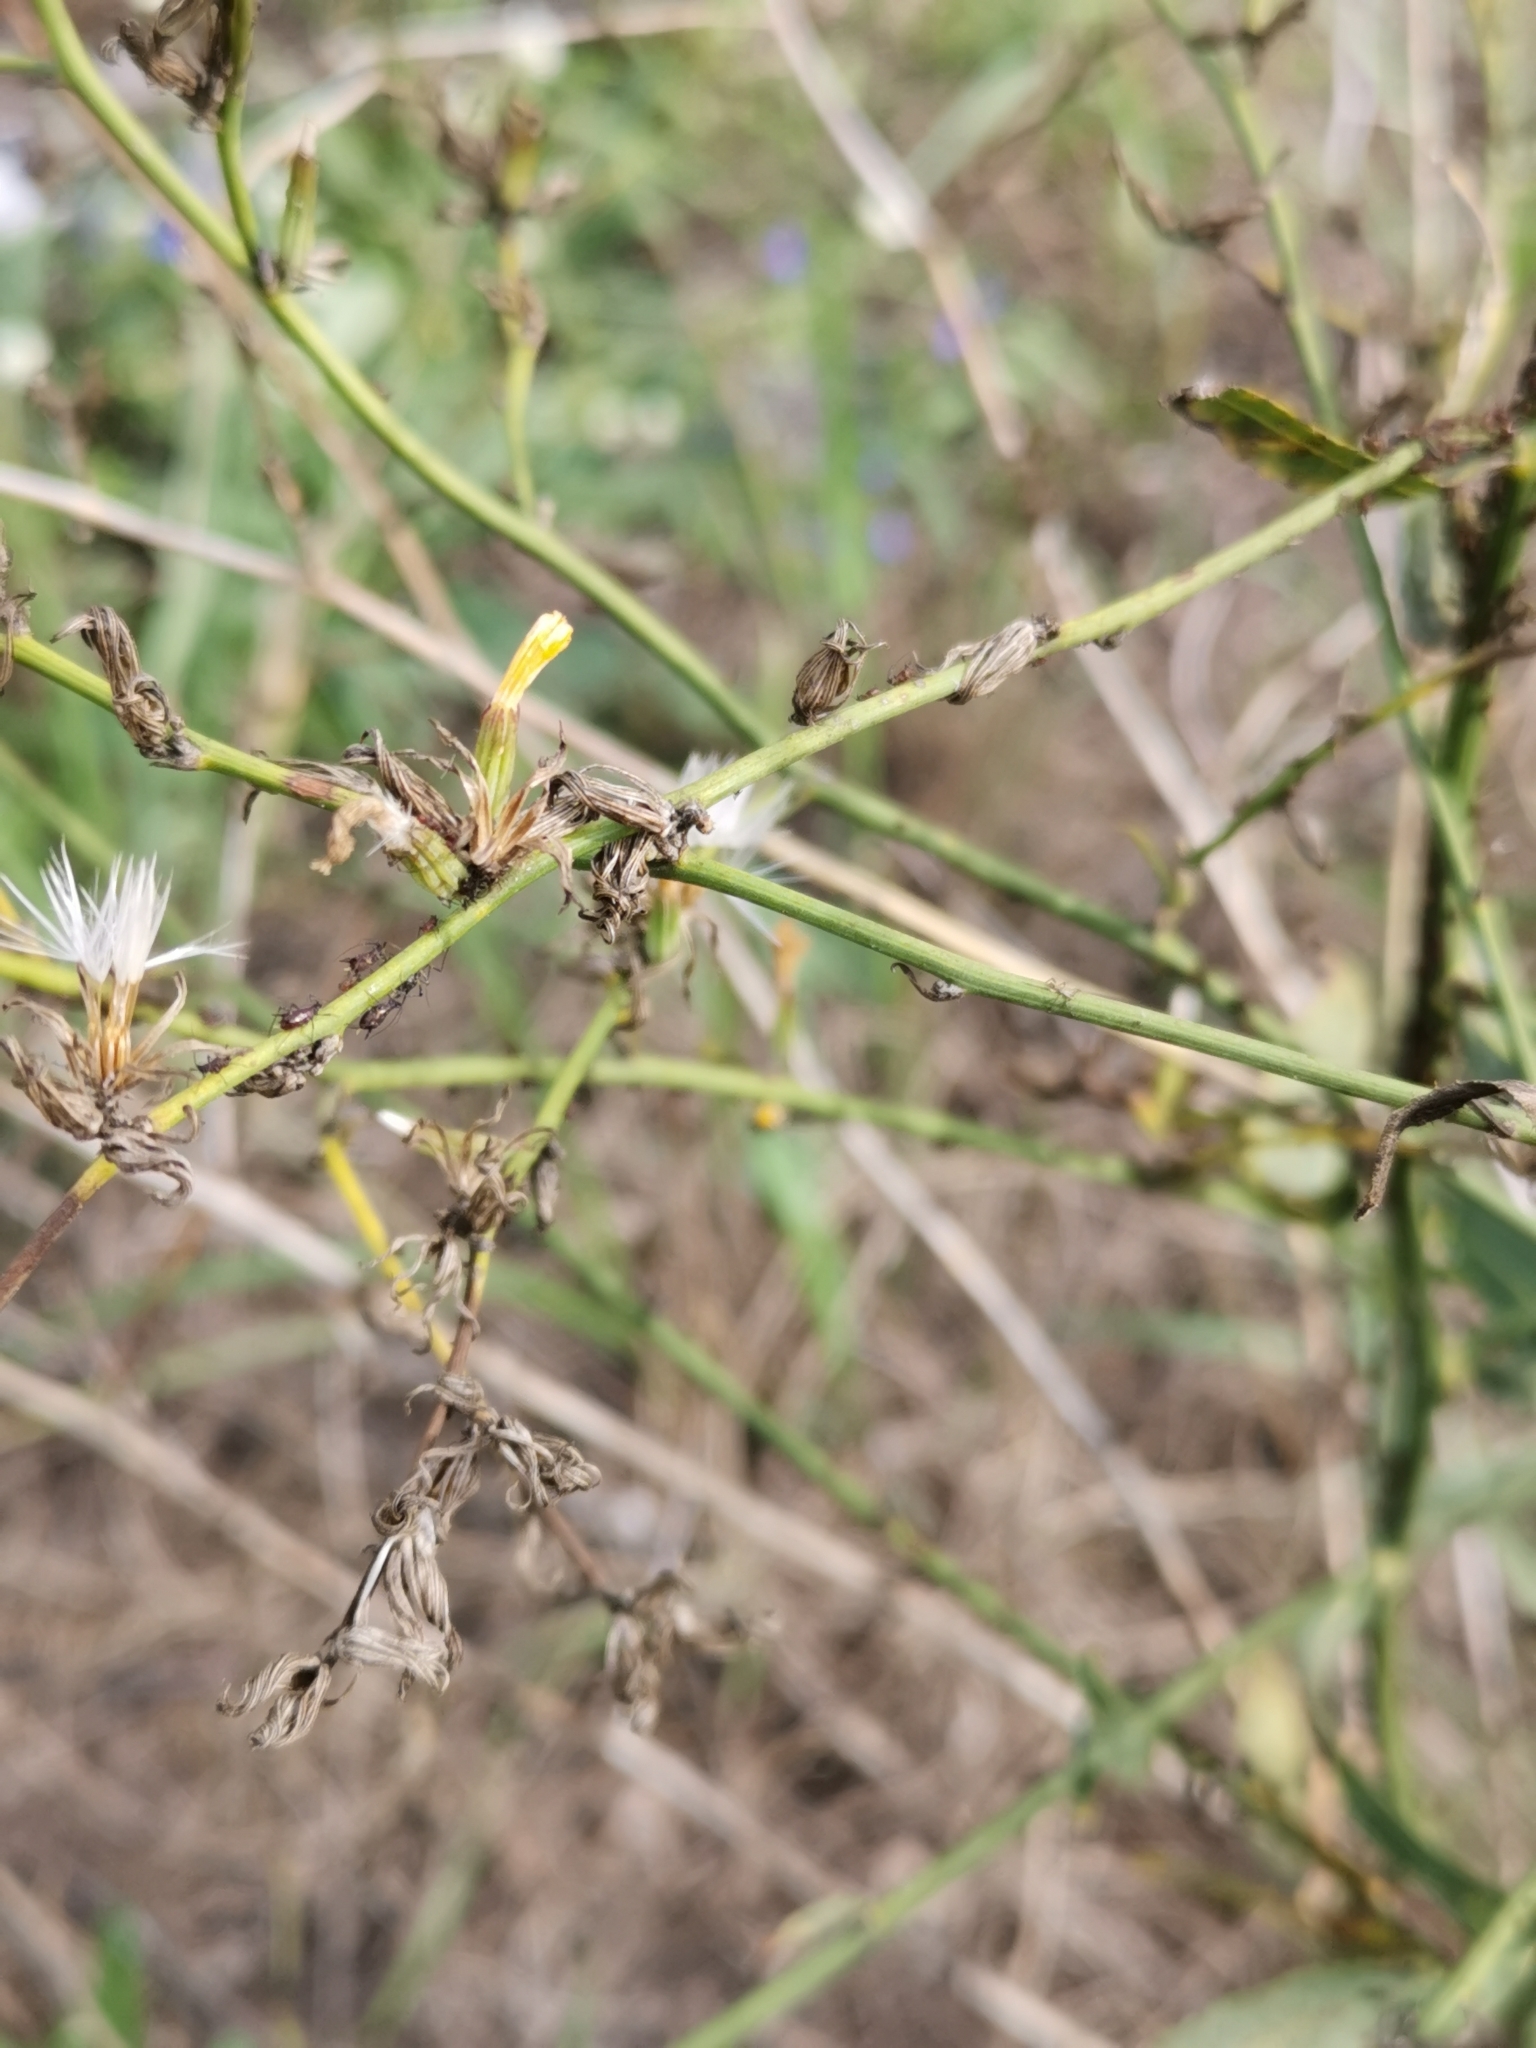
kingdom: Plantae
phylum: Tracheophyta
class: Magnoliopsida
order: Asterales
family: Asteraceae
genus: Chondrilla
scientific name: Chondrilla juncea
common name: Skeleton weed
